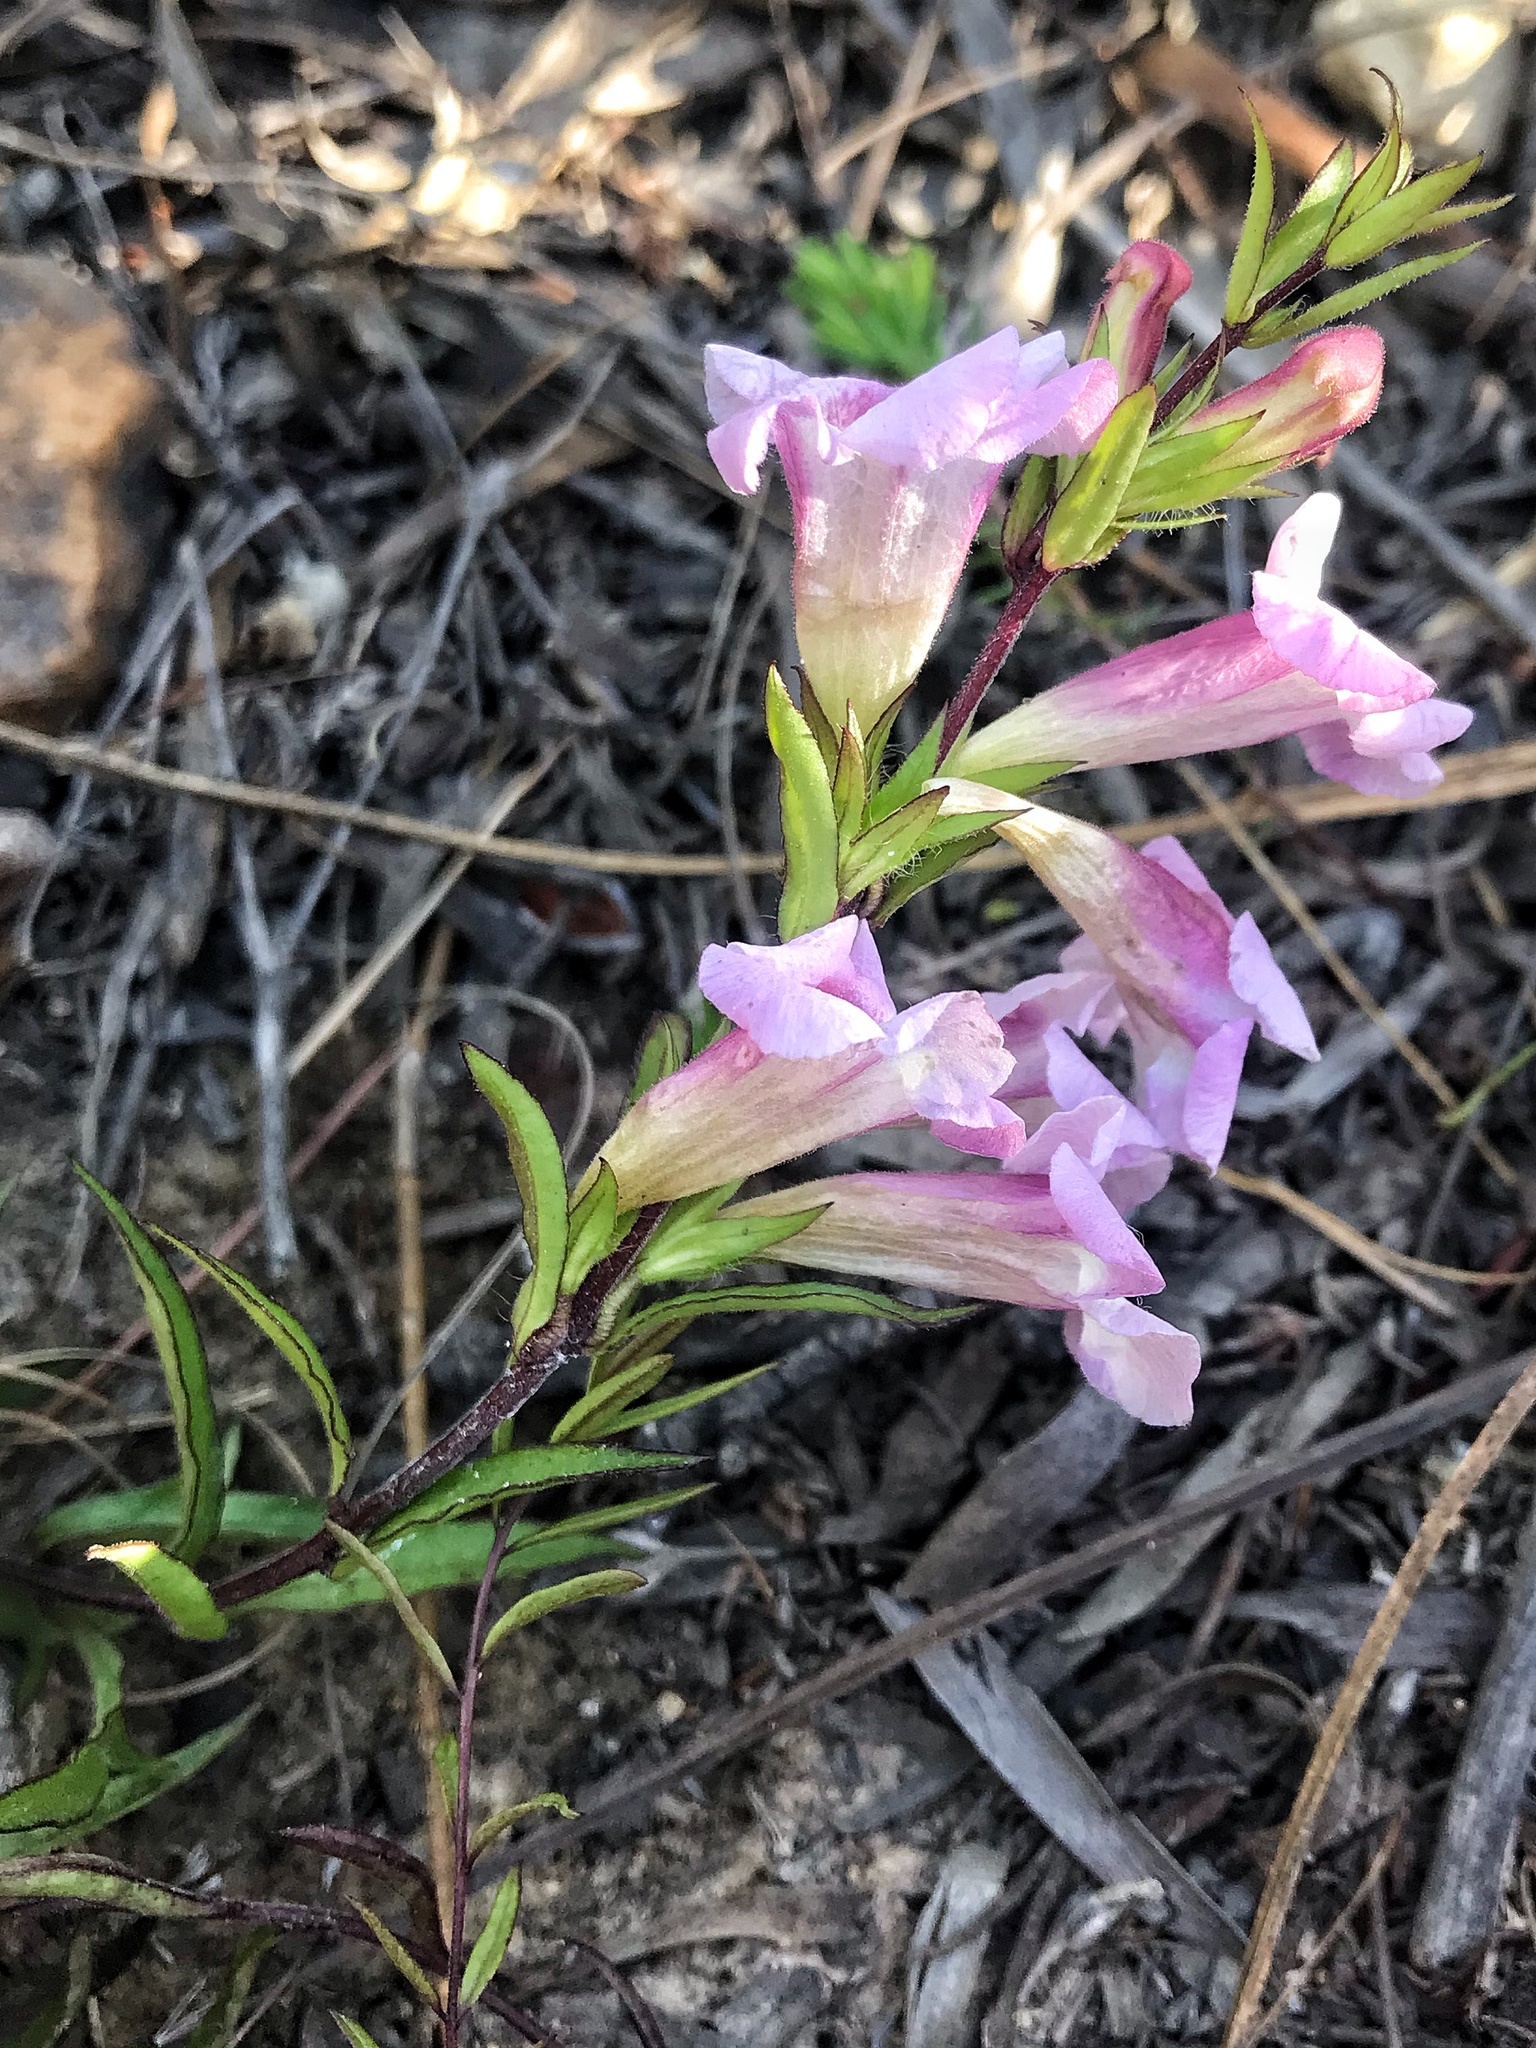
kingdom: Plantae
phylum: Tracheophyta
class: Magnoliopsida
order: Lamiales
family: Orobanchaceae
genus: Graderia
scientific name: Graderia scabra
